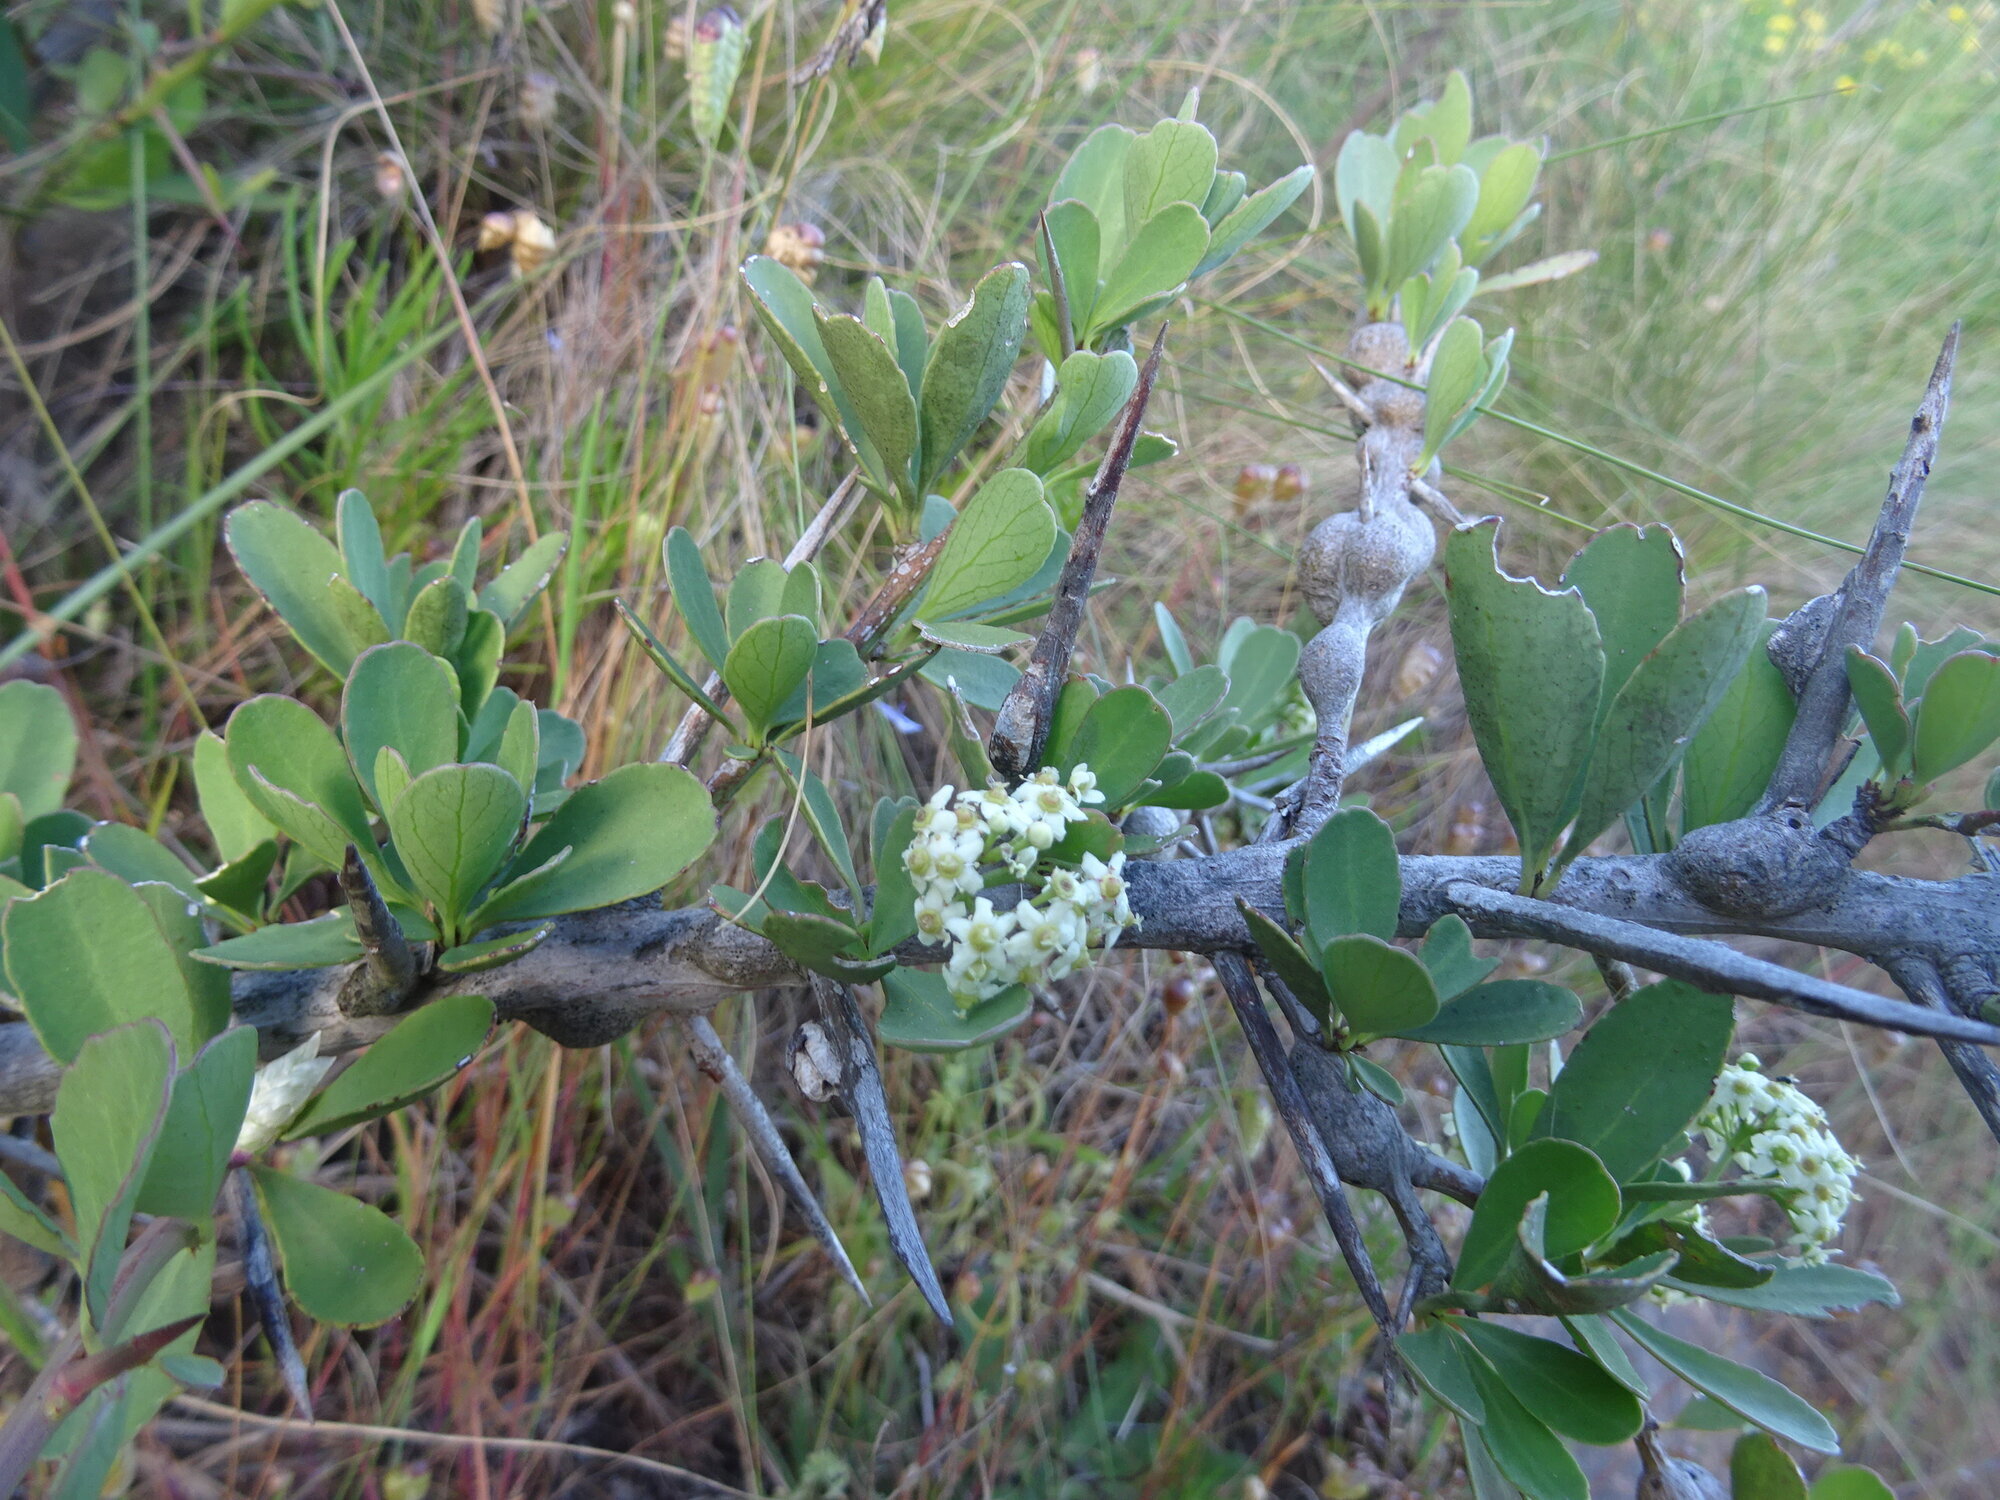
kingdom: Plantae
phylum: Tracheophyta
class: Magnoliopsida
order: Celastrales
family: Celastraceae
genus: Gymnosporia
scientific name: Gymnosporia buxifolia
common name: Common spike-thorn
